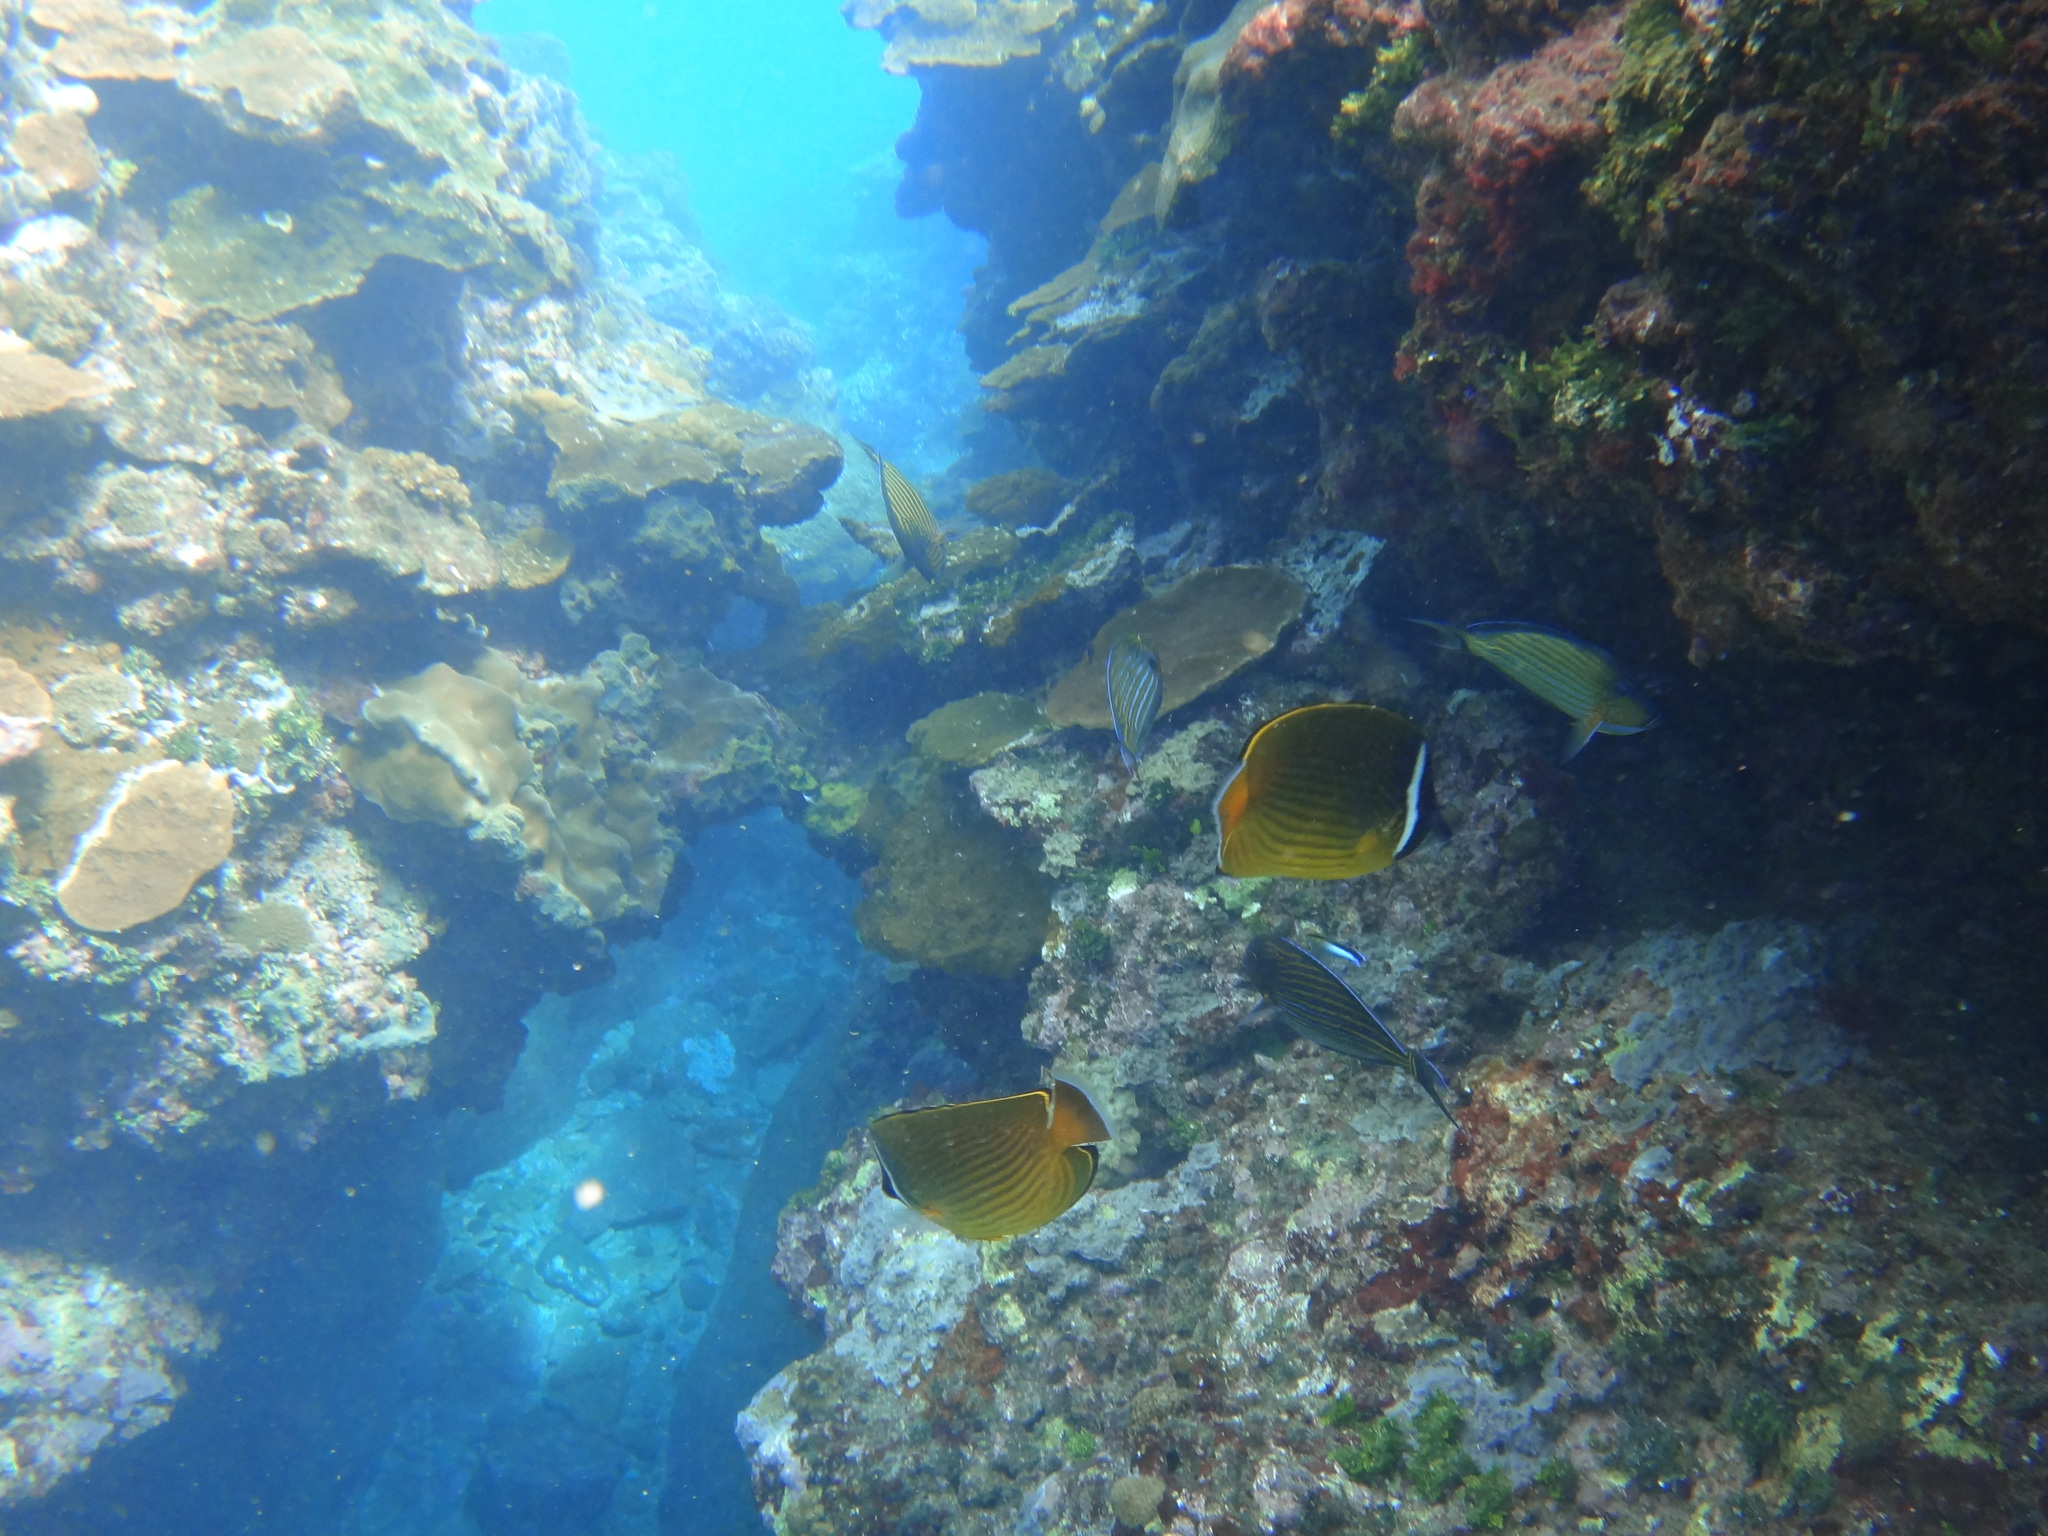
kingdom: Animalia
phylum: Chordata
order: Perciformes
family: Chaetodontidae
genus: Chaetodon
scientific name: Chaetodon auripes
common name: Oriental butterflyfish
